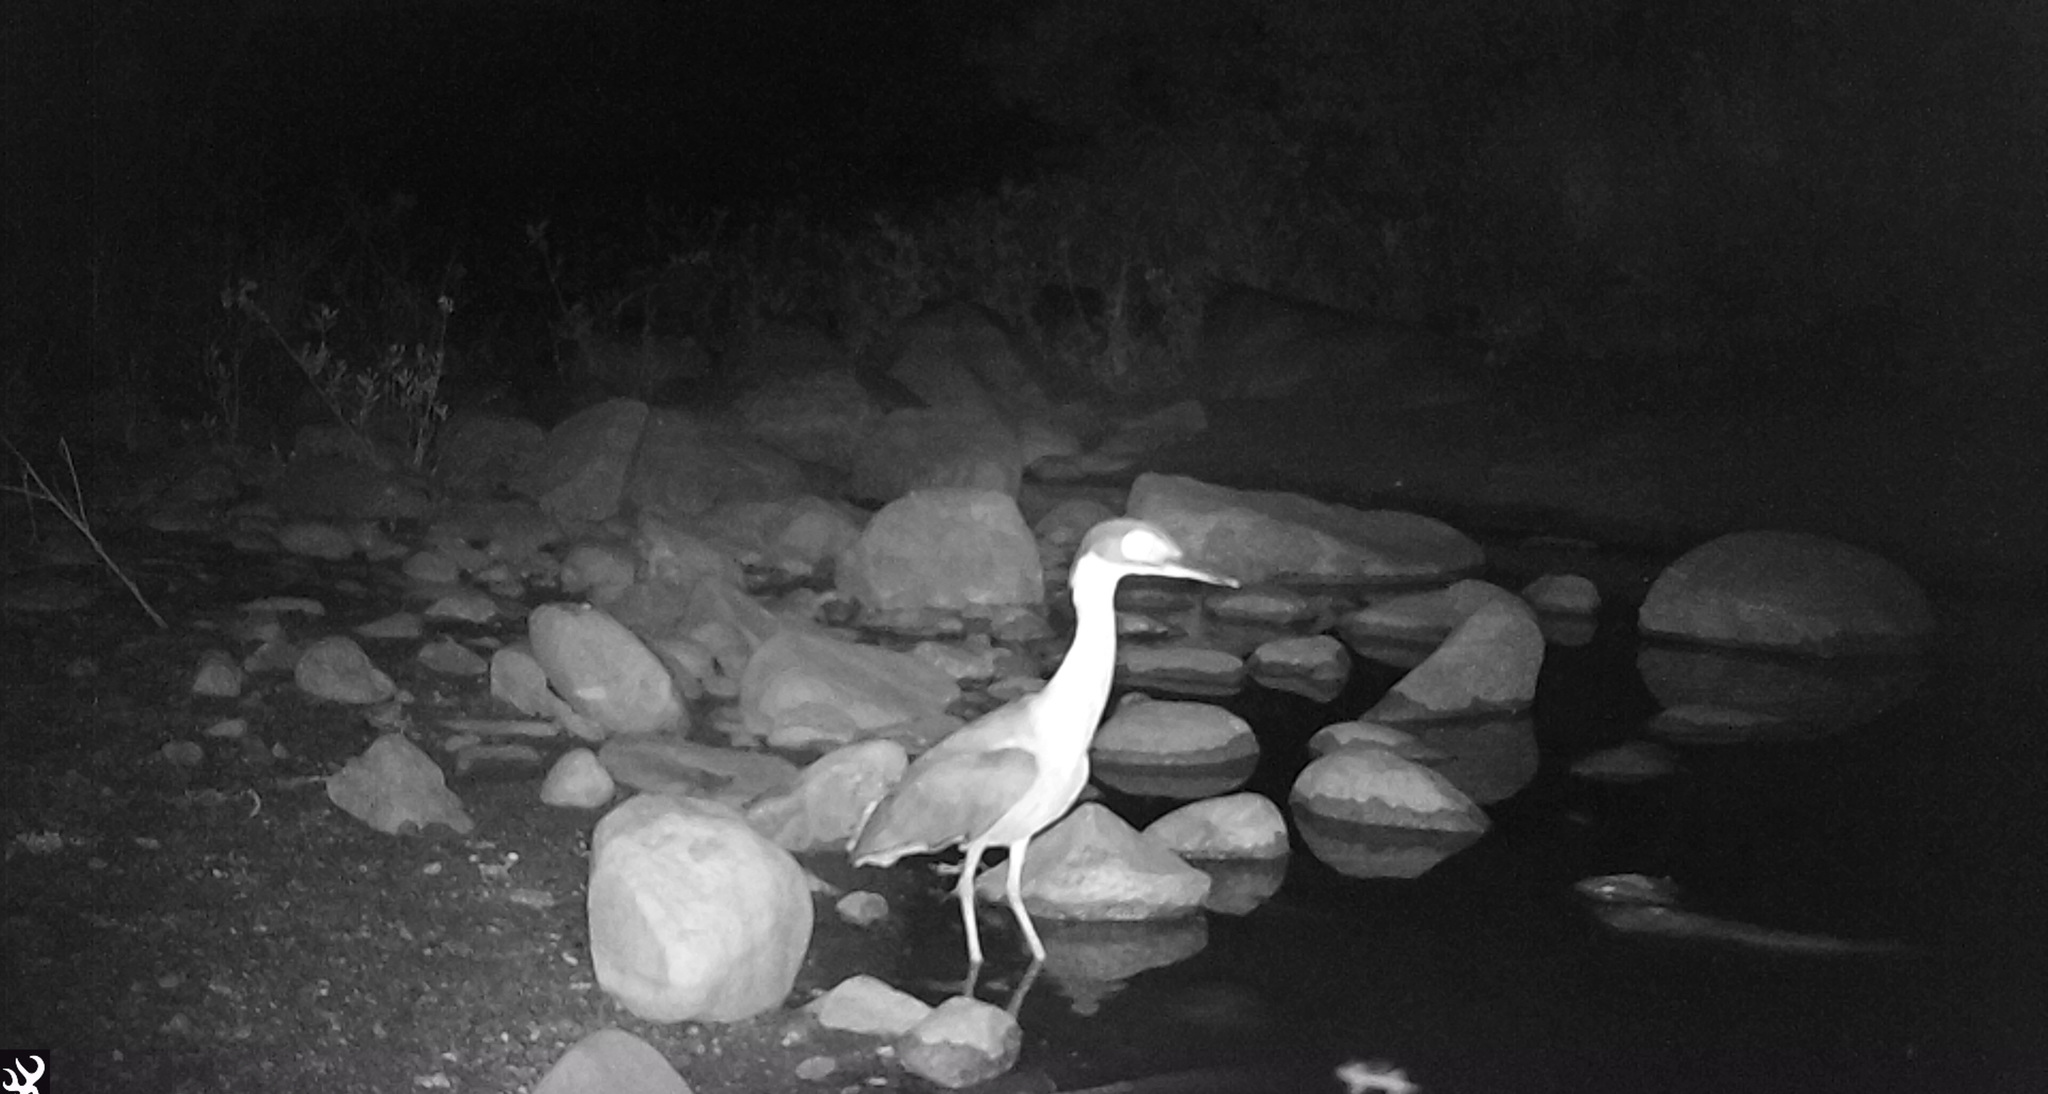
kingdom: Animalia
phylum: Chordata
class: Aves
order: Pelecaniformes
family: Ardeidae
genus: Gorsachius
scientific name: Gorsachius leuconotus
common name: White-backed night heron
